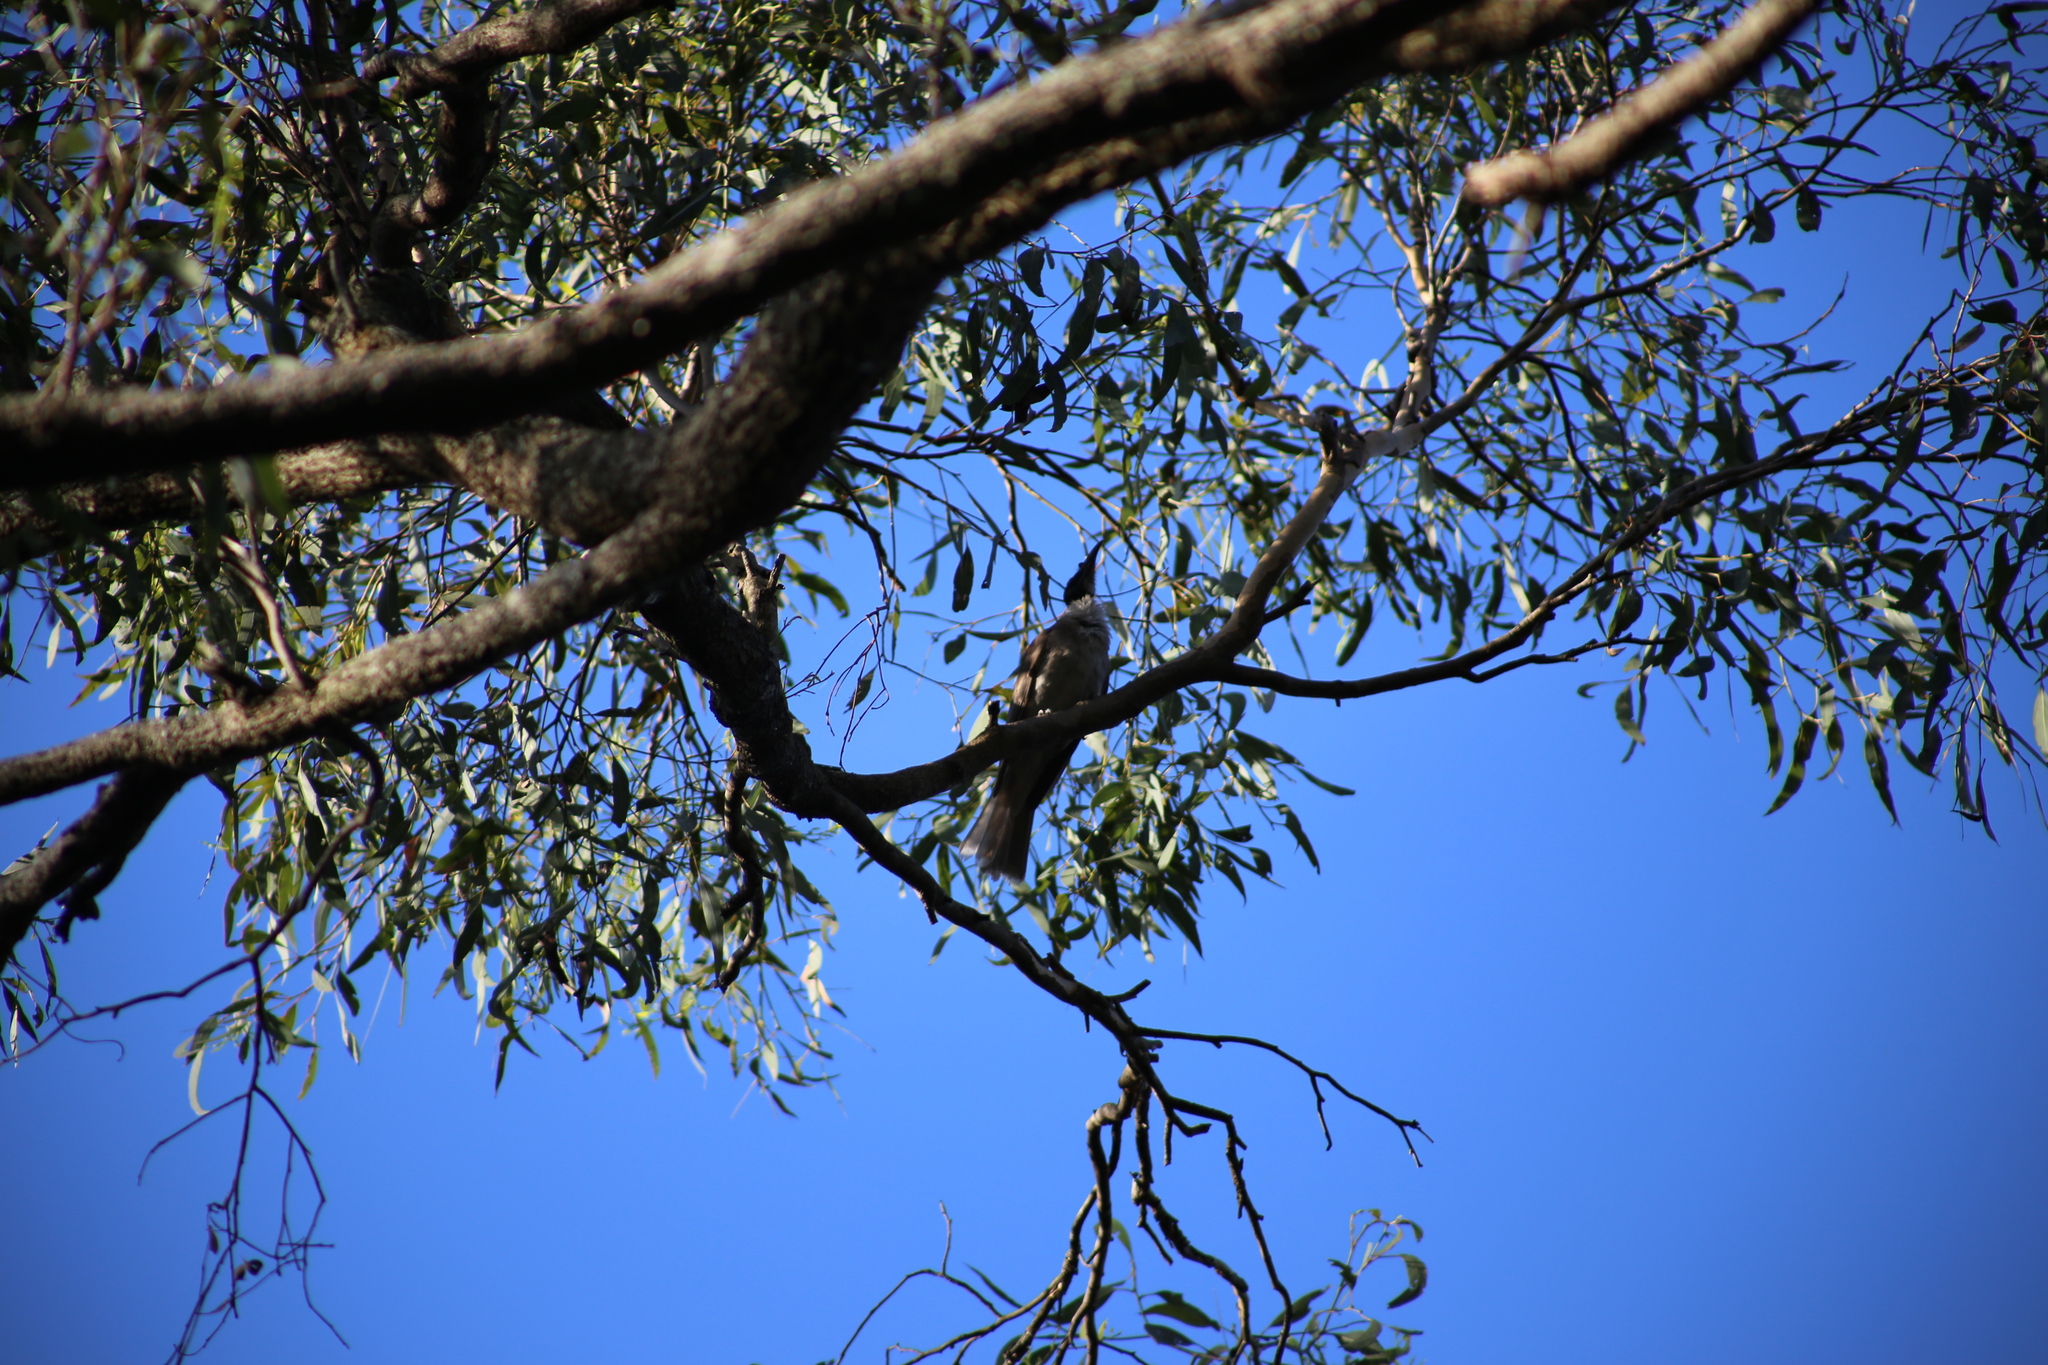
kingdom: Animalia
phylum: Chordata
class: Aves
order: Passeriformes
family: Meliphagidae
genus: Philemon
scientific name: Philemon corniculatus
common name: Noisy friarbird
